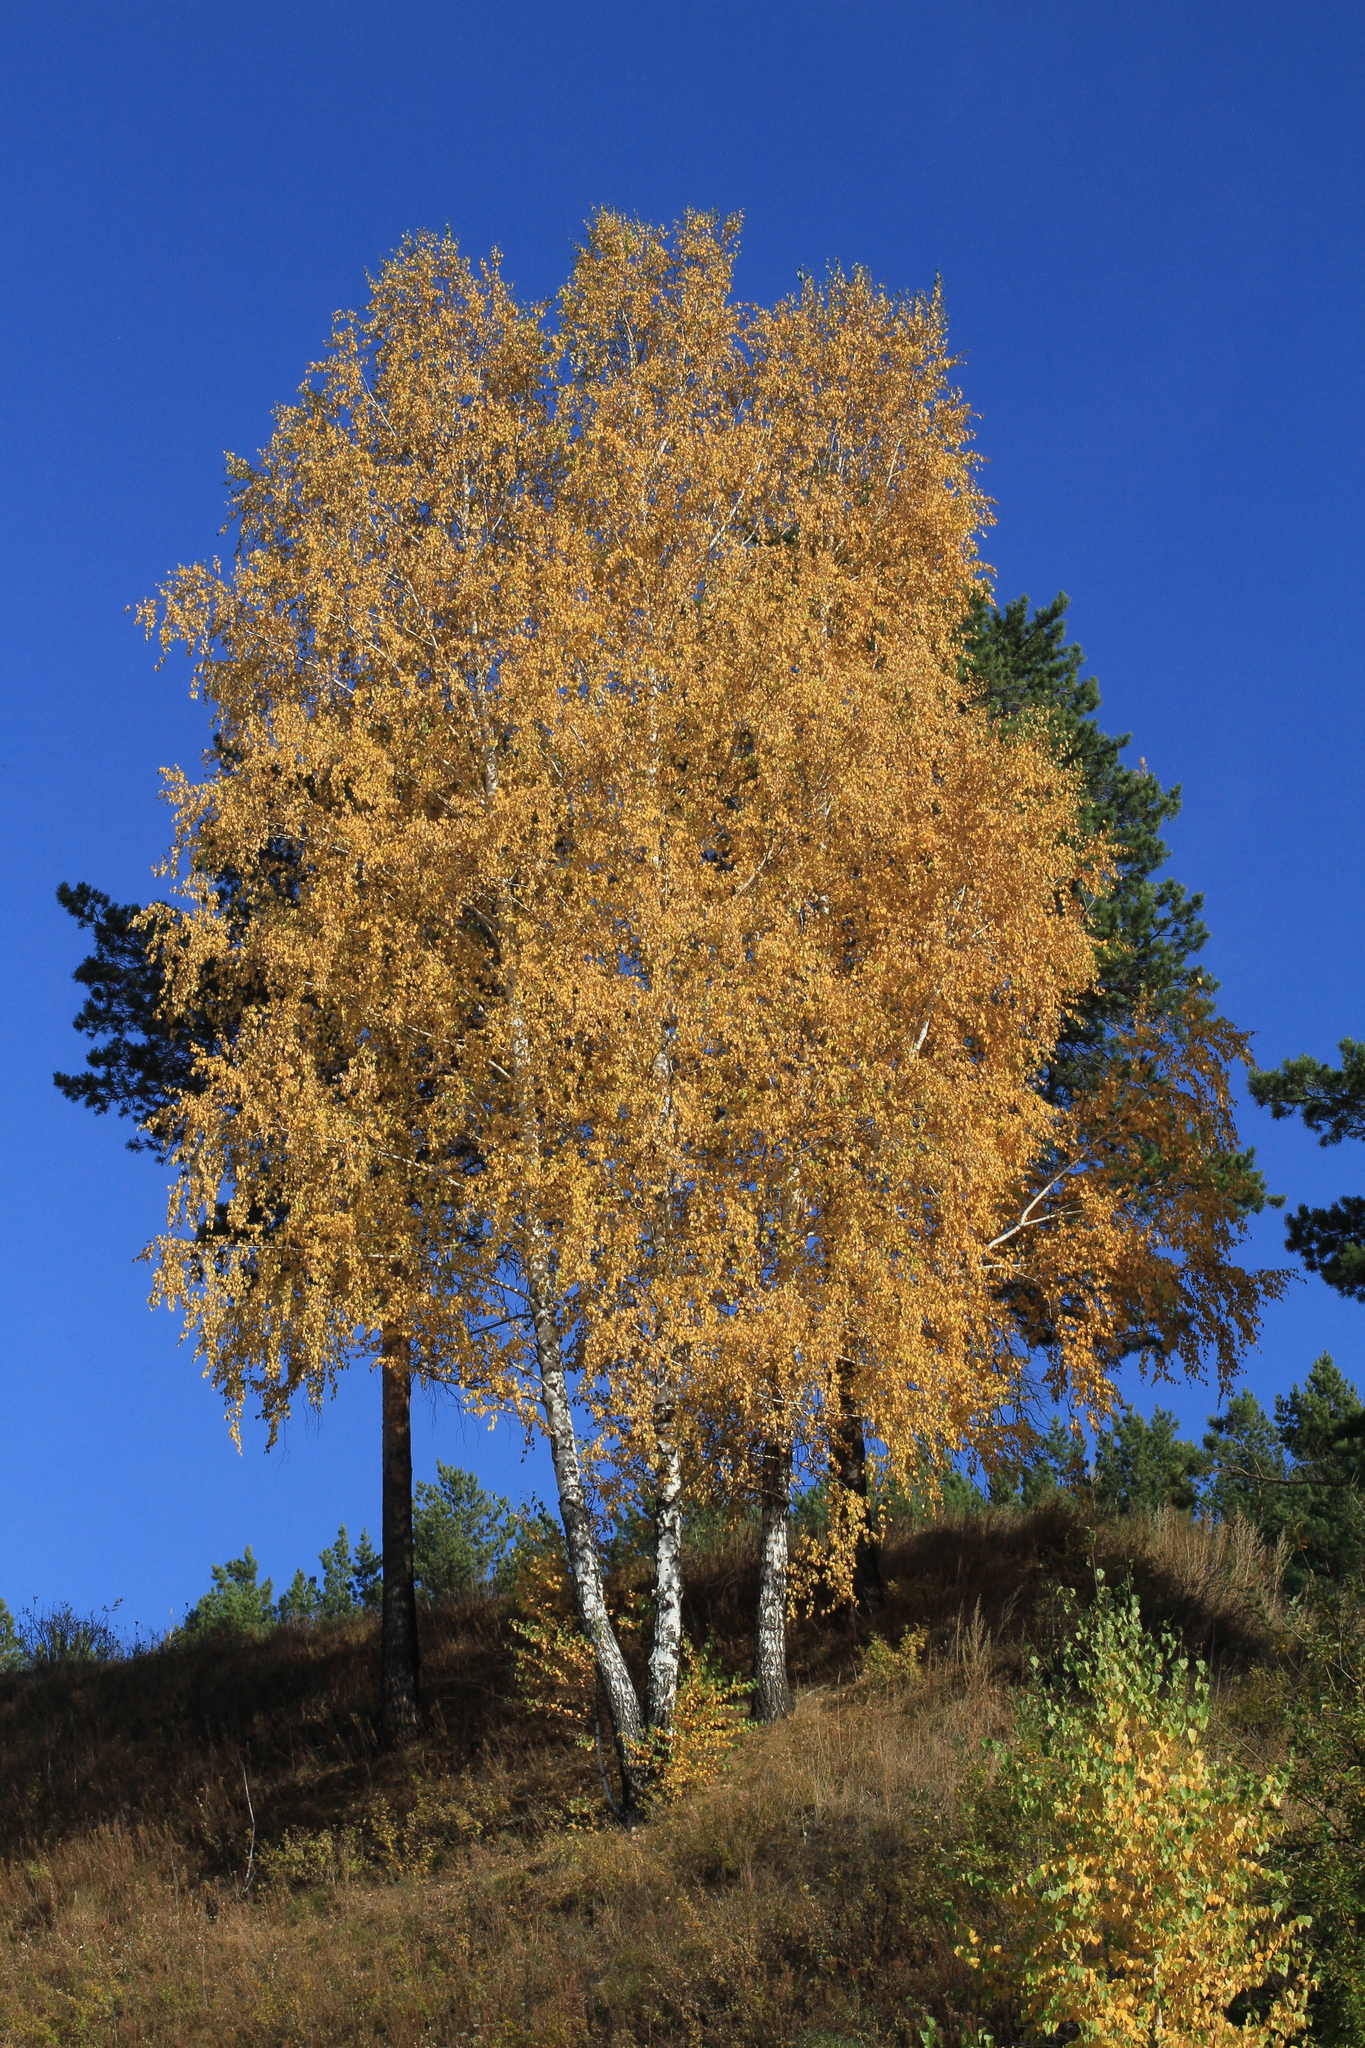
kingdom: Plantae
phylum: Tracheophyta
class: Magnoliopsida
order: Fagales
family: Betulaceae
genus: Betula
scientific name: Betula pendula
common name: Silver birch
